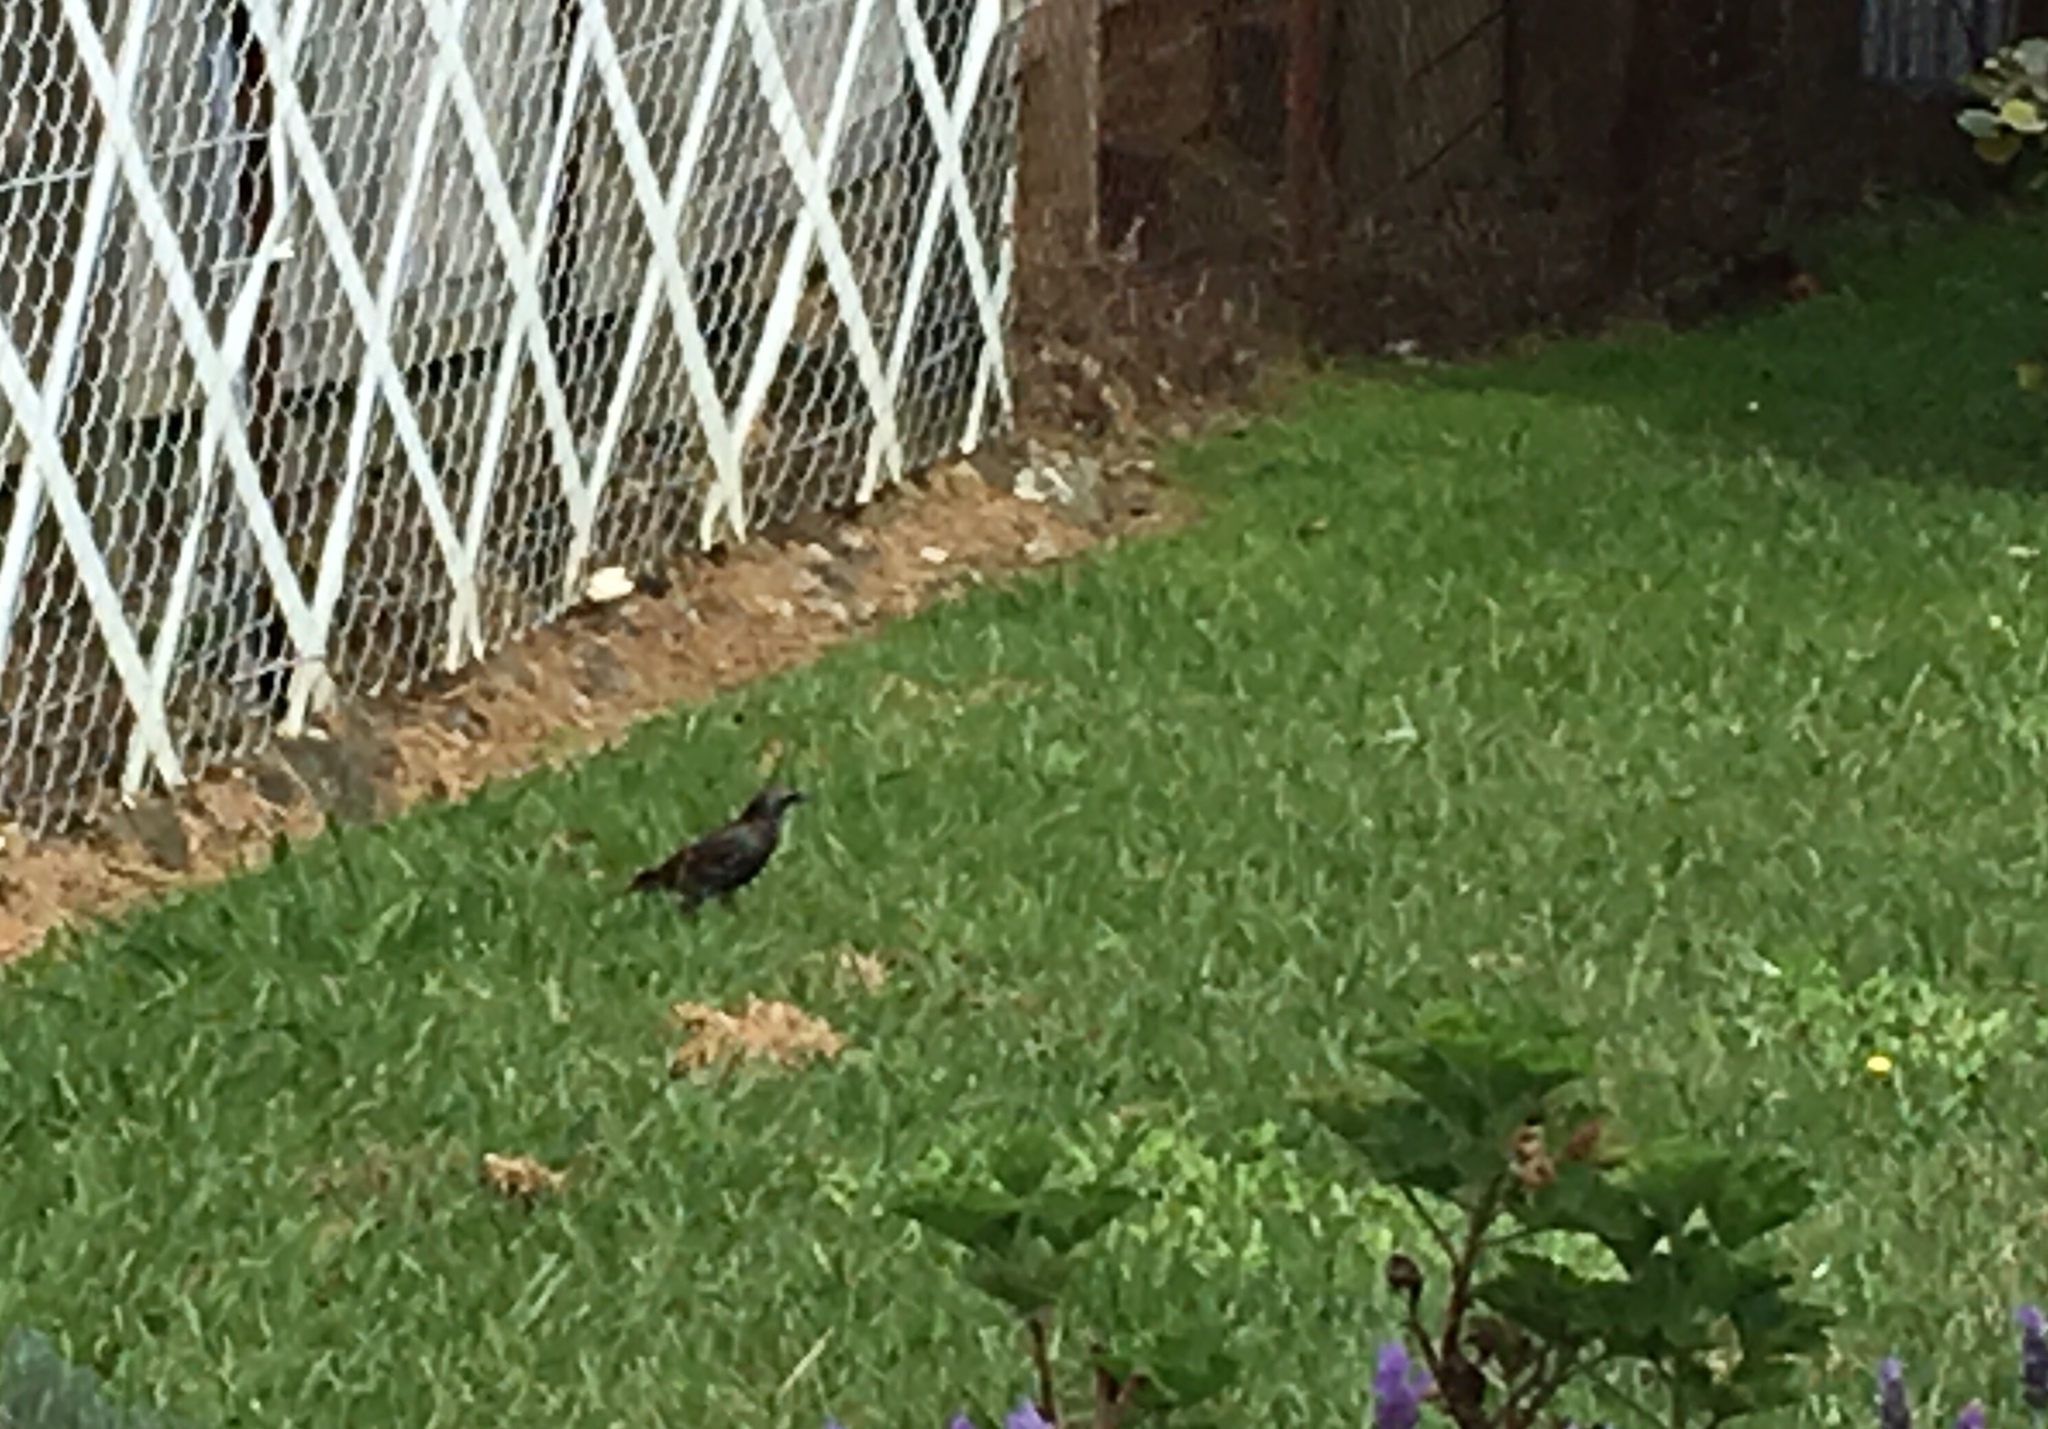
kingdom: Animalia
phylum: Chordata
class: Aves
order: Passeriformes
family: Sturnidae
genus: Sturnus
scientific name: Sturnus vulgaris
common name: Common starling
